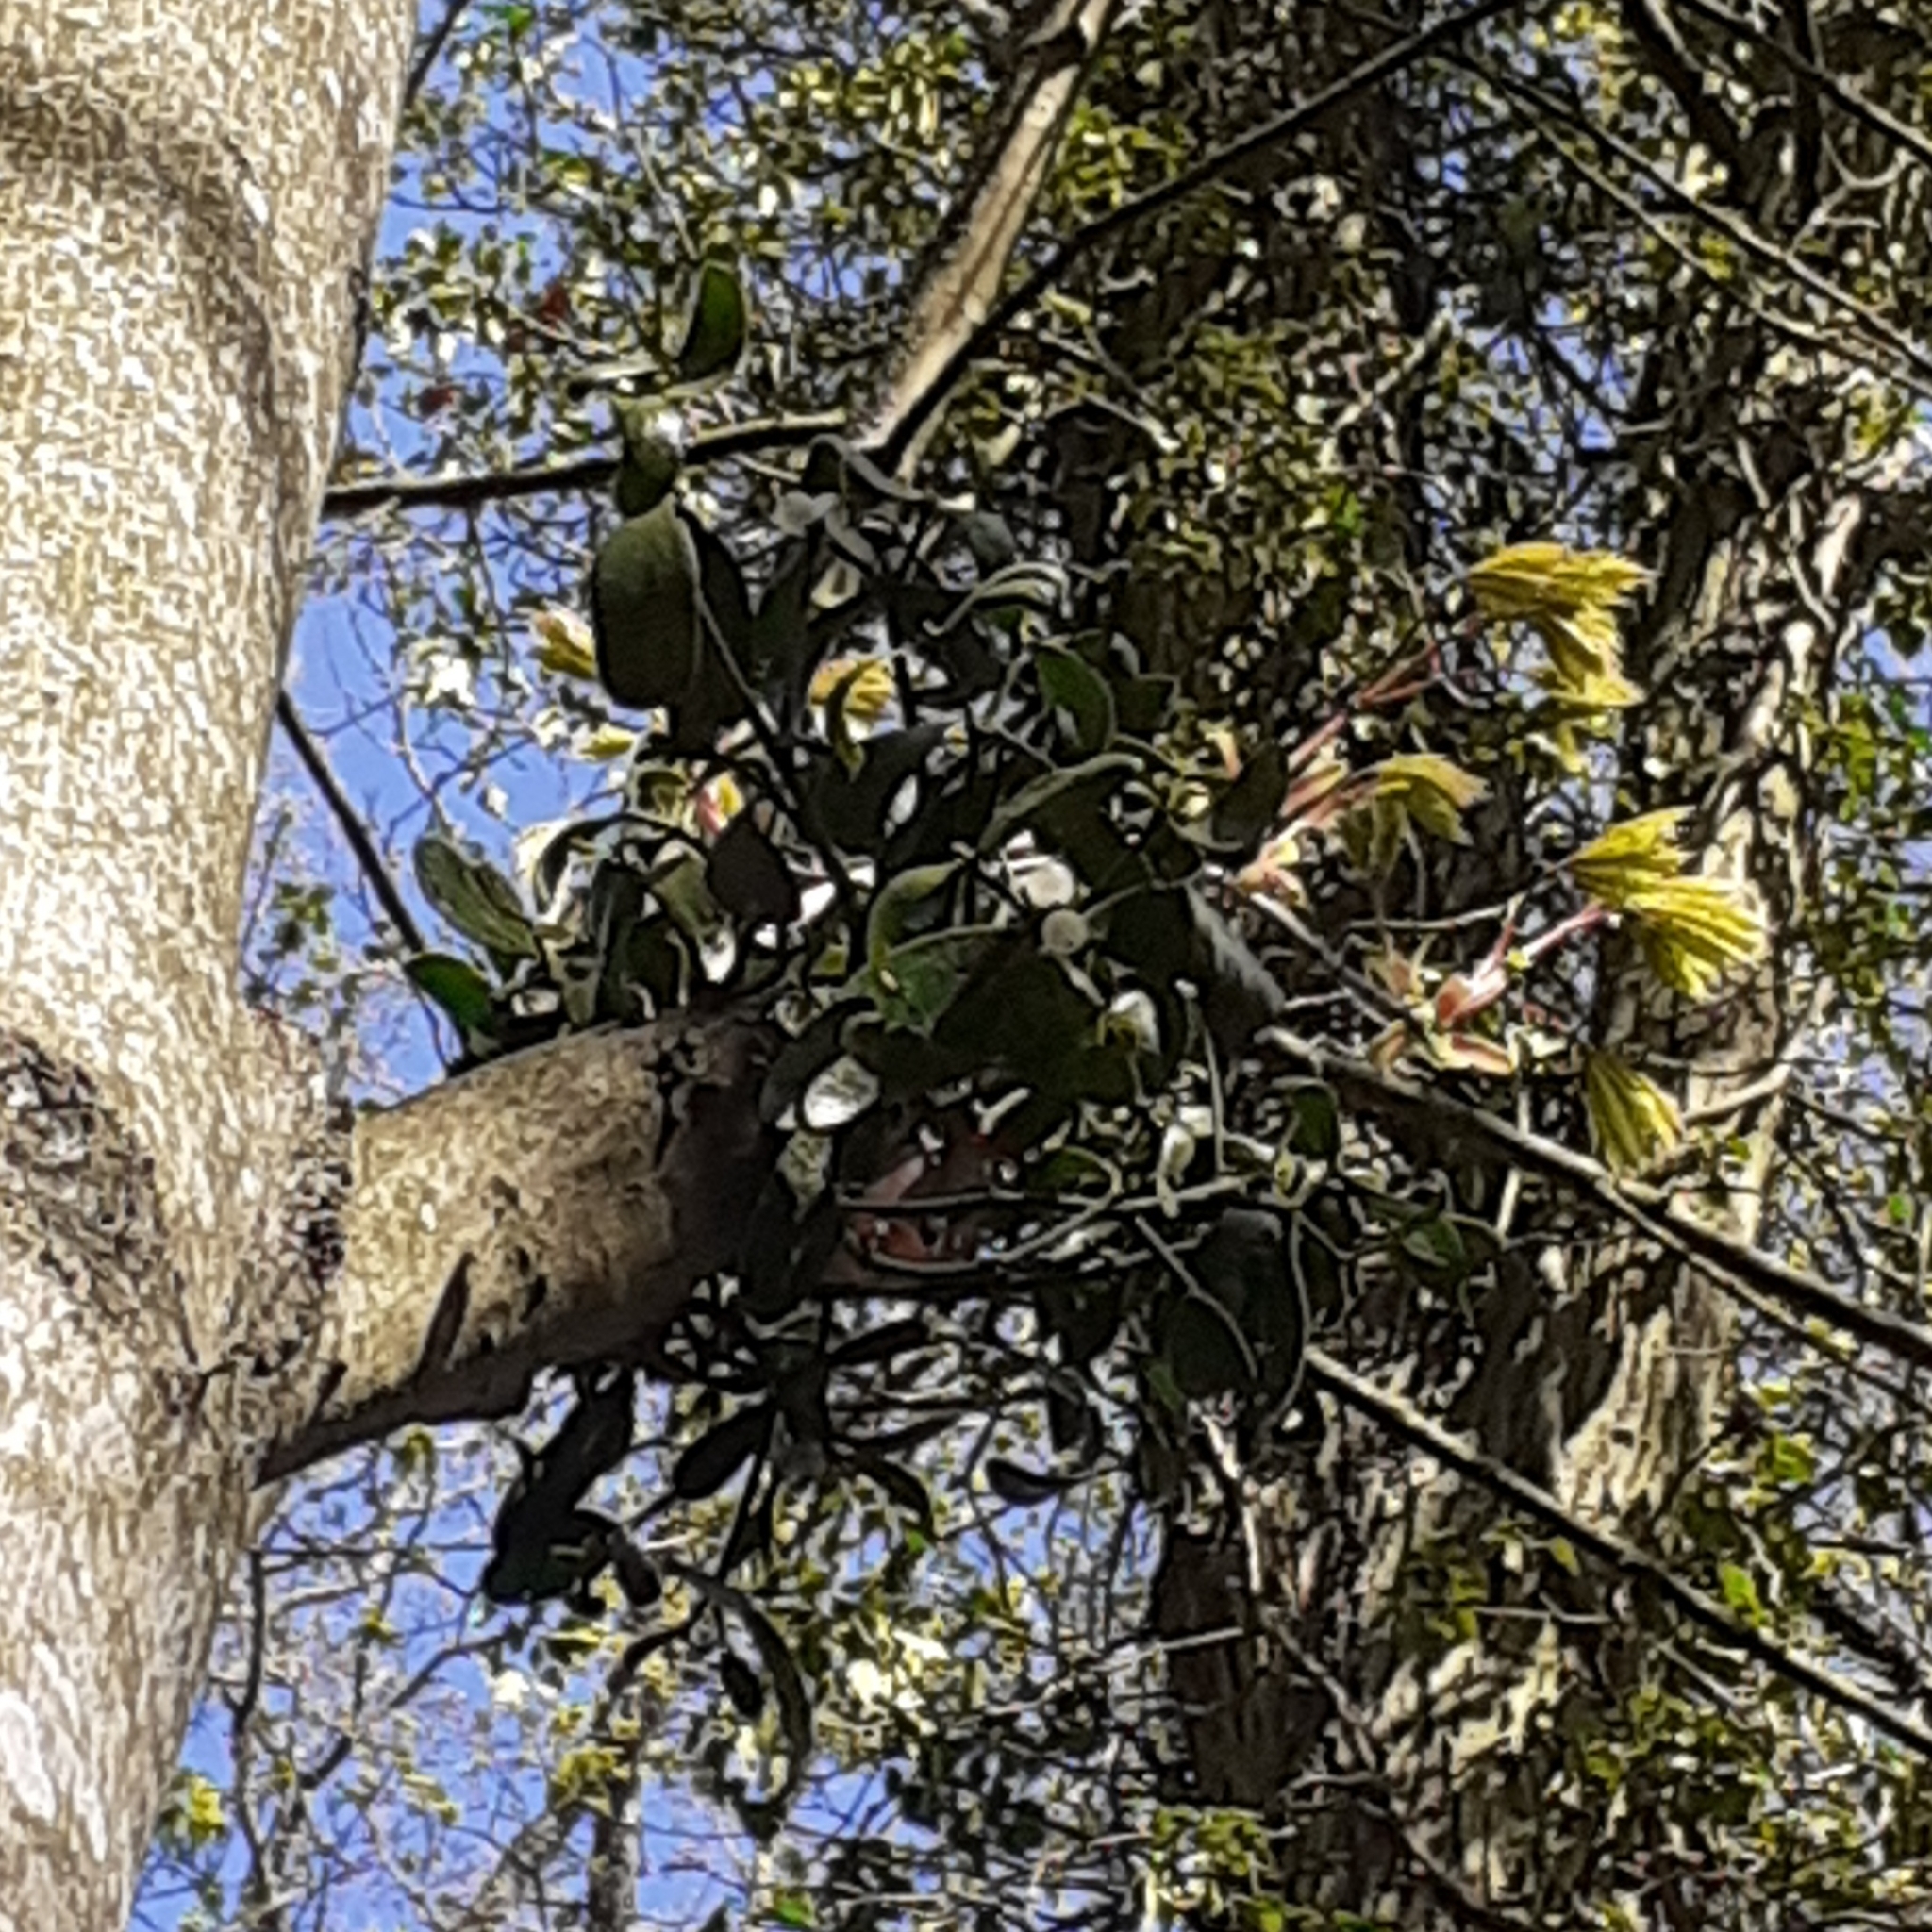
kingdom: Plantae
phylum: Tracheophyta
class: Magnoliopsida
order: Santalales
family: Viscaceae
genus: Viscum
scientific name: Viscum album
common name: Mistletoe
